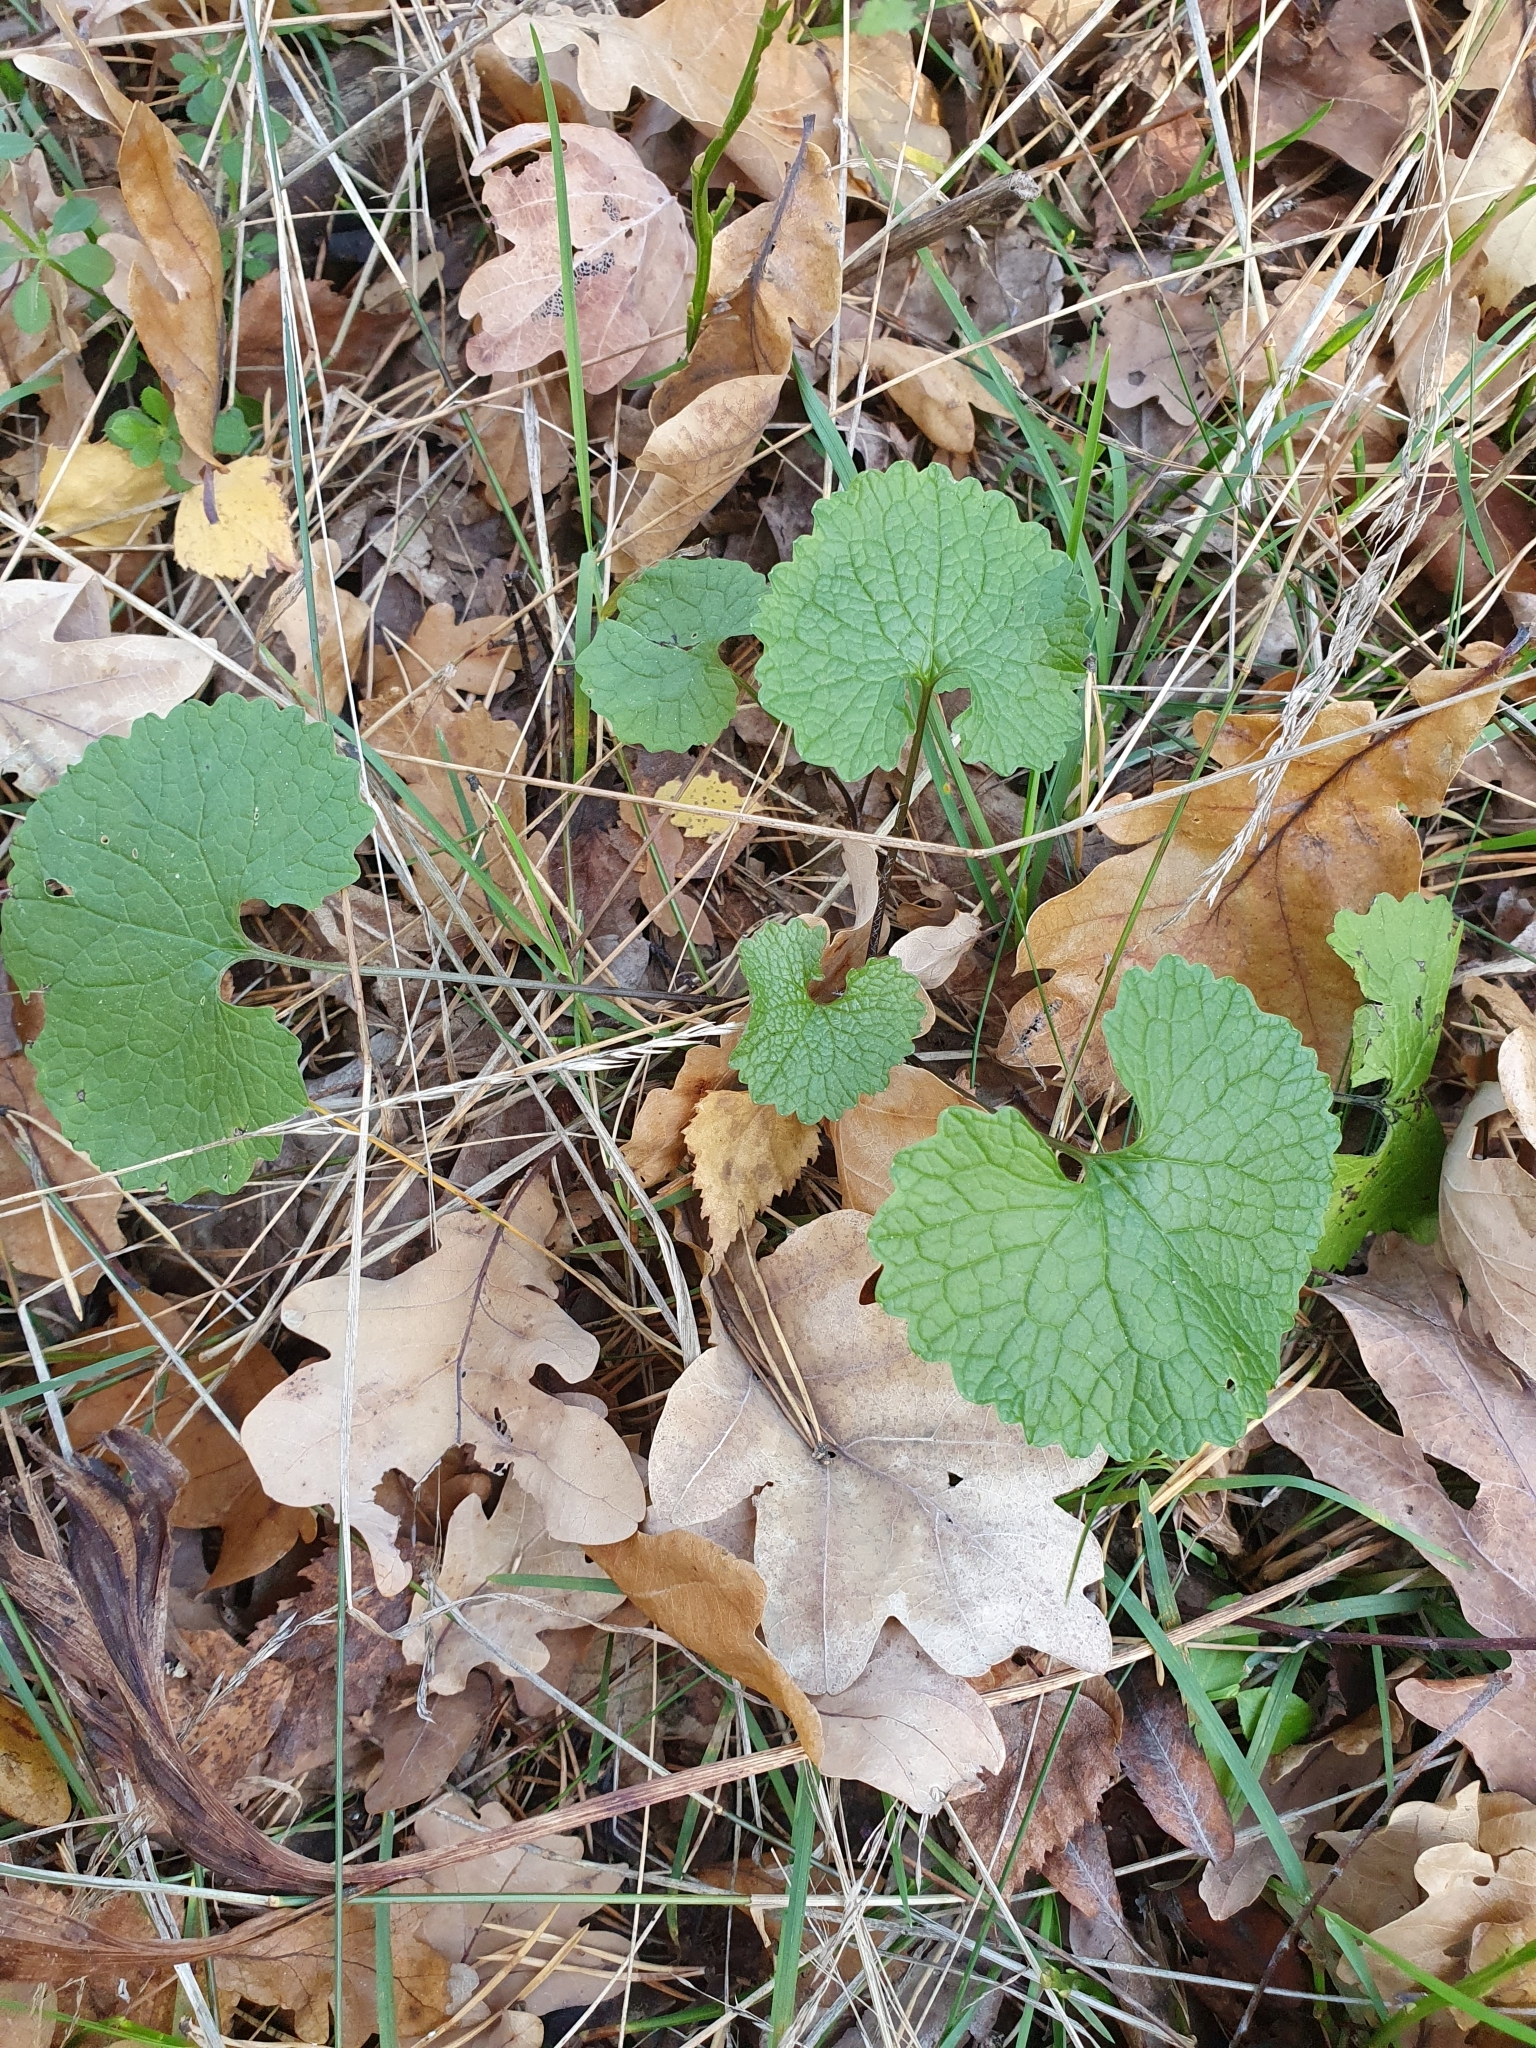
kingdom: Plantae
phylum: Tracheophyta
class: Magnoliopsida
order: Brassicales
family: Brassicaceae
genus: Alliaria
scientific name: Alliaria petiolata
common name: Garlic mustard
